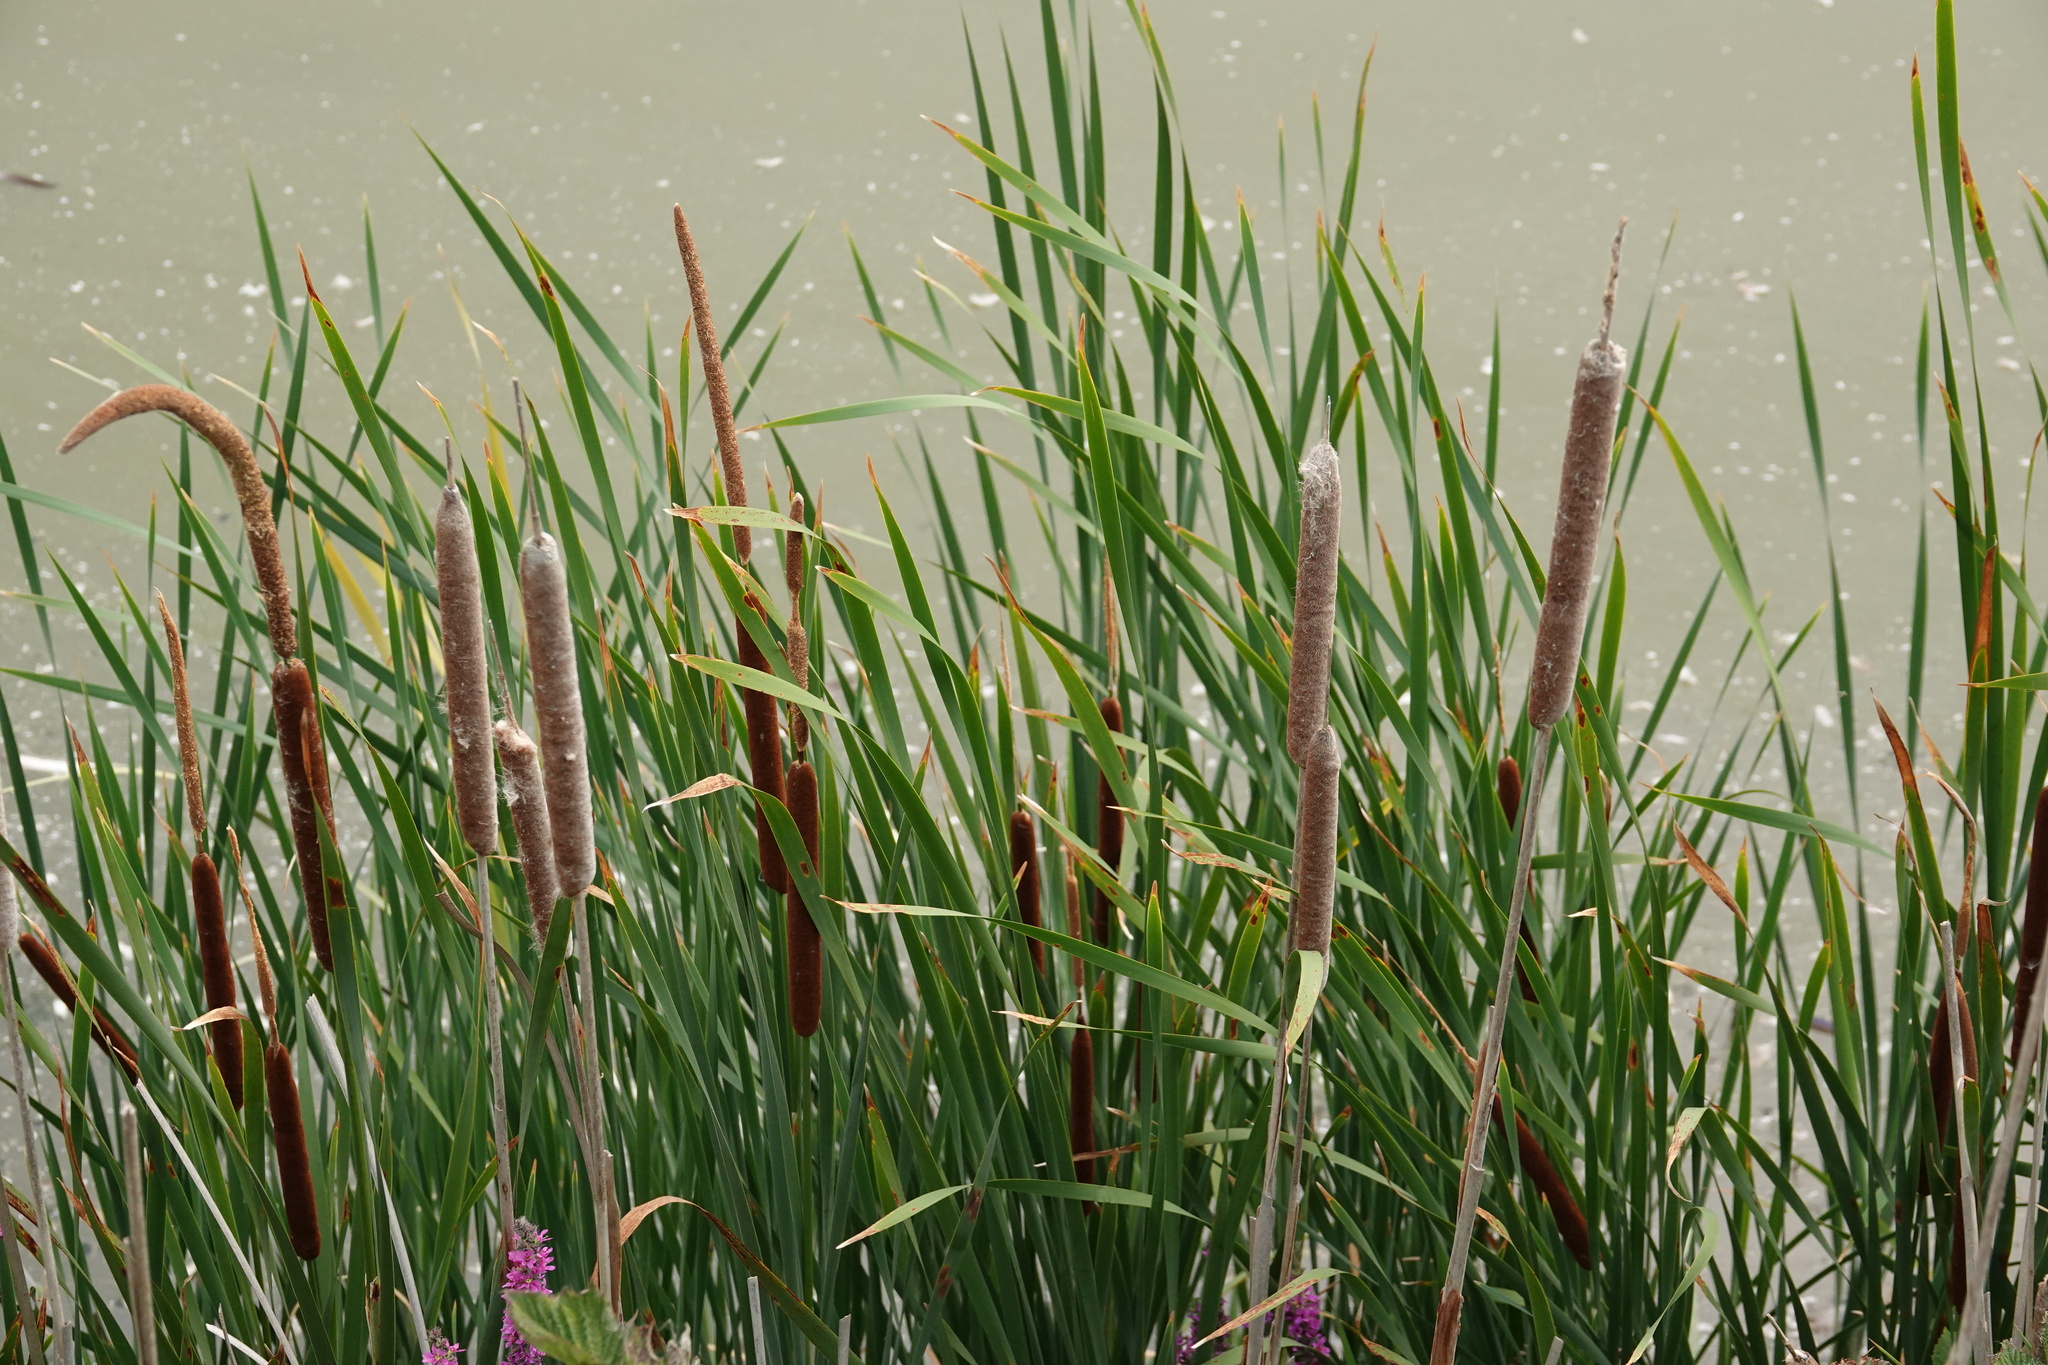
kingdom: Plantae
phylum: Tracheophyta
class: Liliopsida
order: Poales
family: Typhaceae
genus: Typha
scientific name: Typha glauca
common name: Blue cattail
